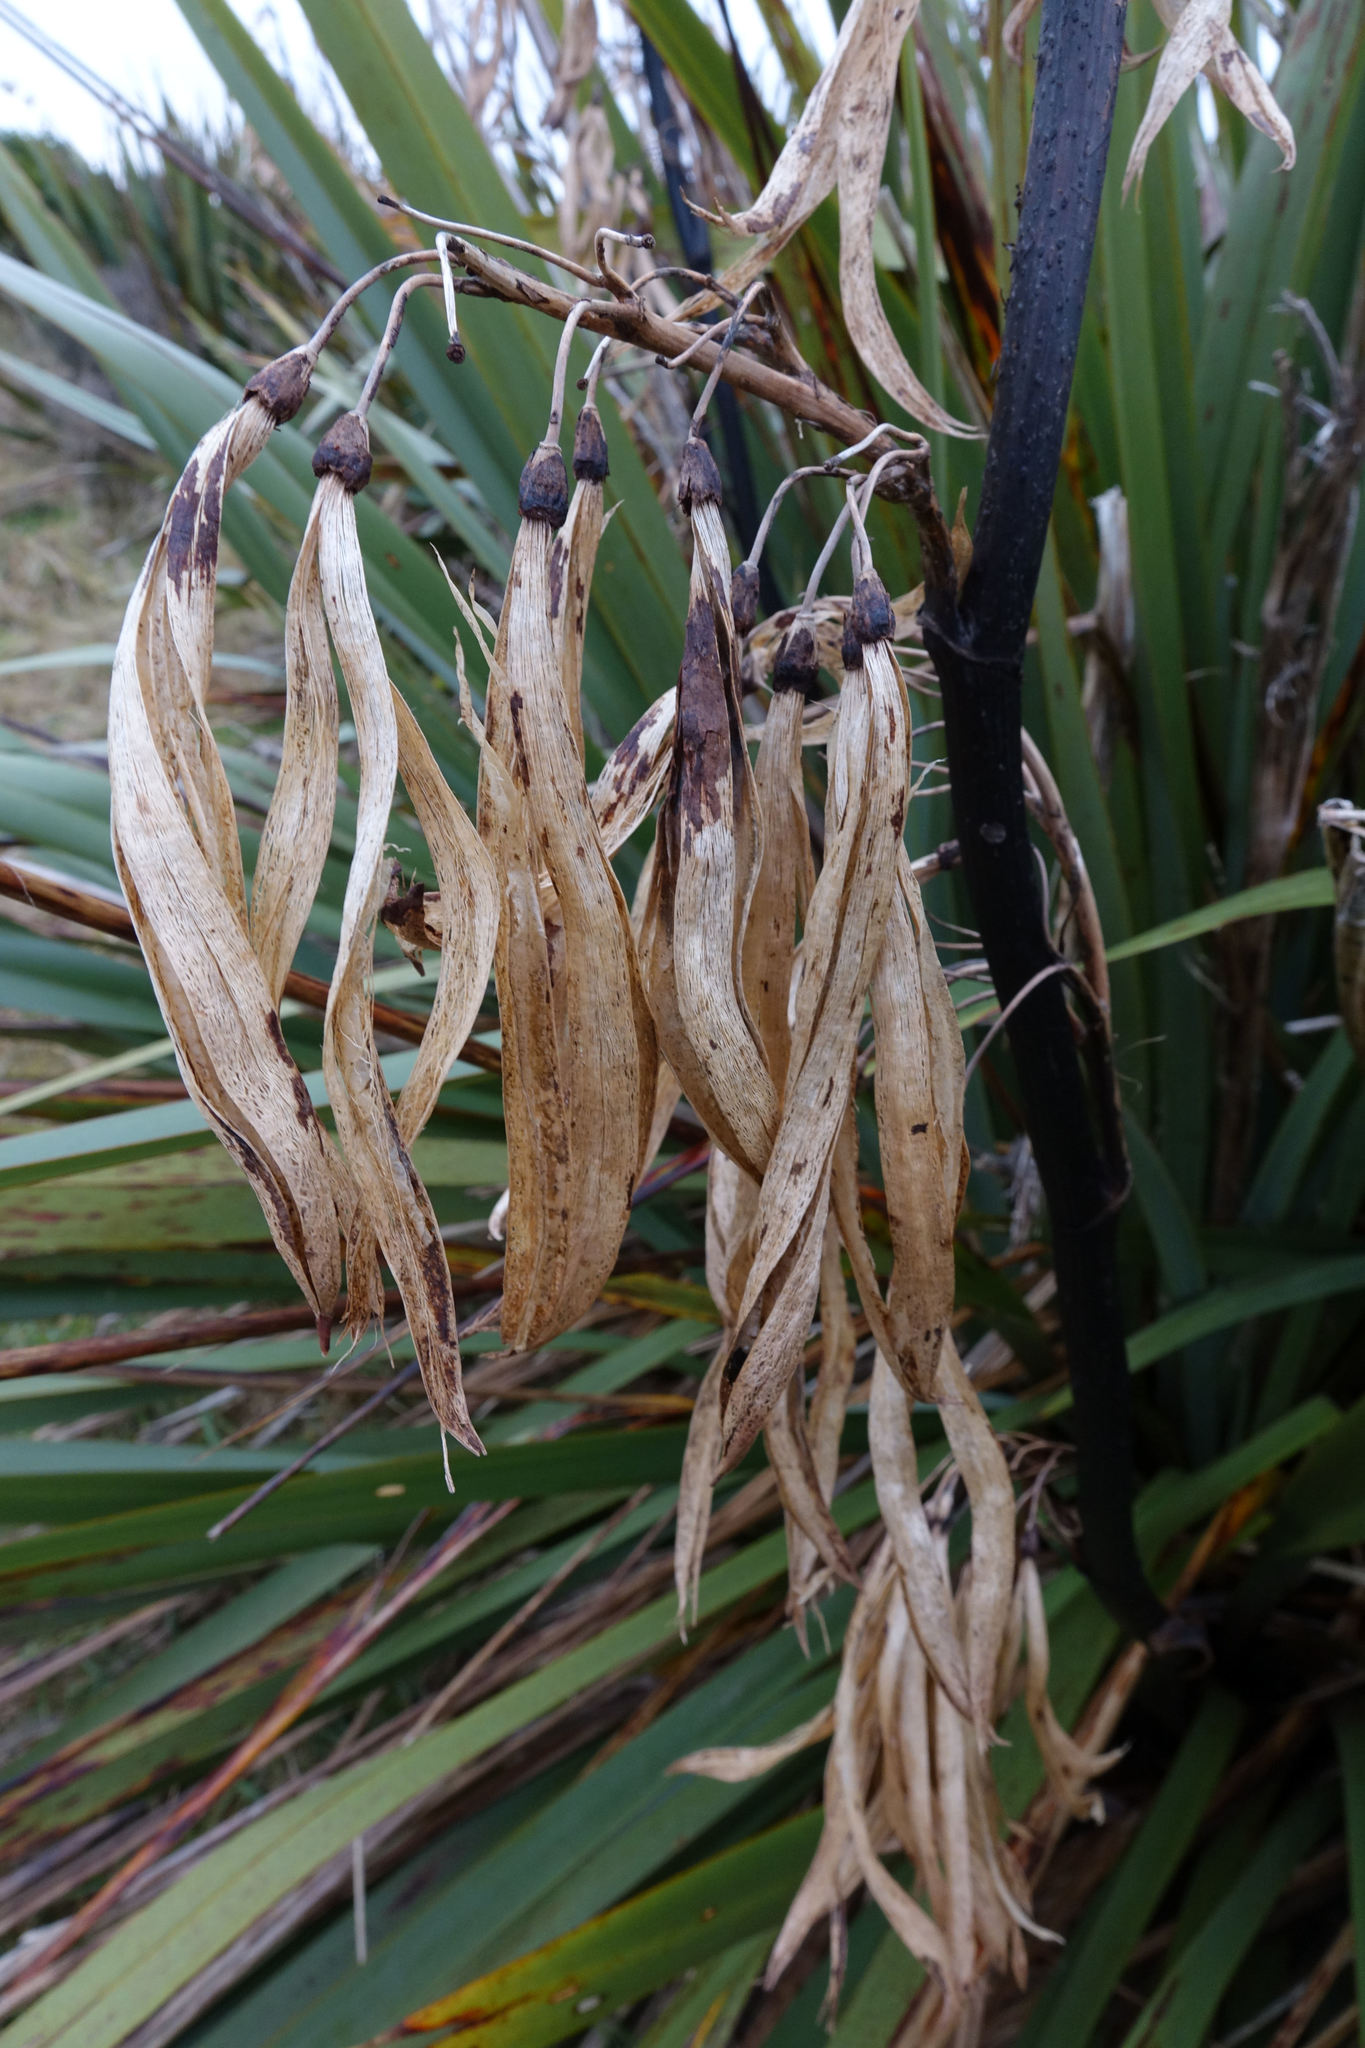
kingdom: Plantae
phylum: Tracheophyta
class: Liliopsida
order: Asparagales
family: Asphodelaceae
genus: Phormium
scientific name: Phormium colensoi
